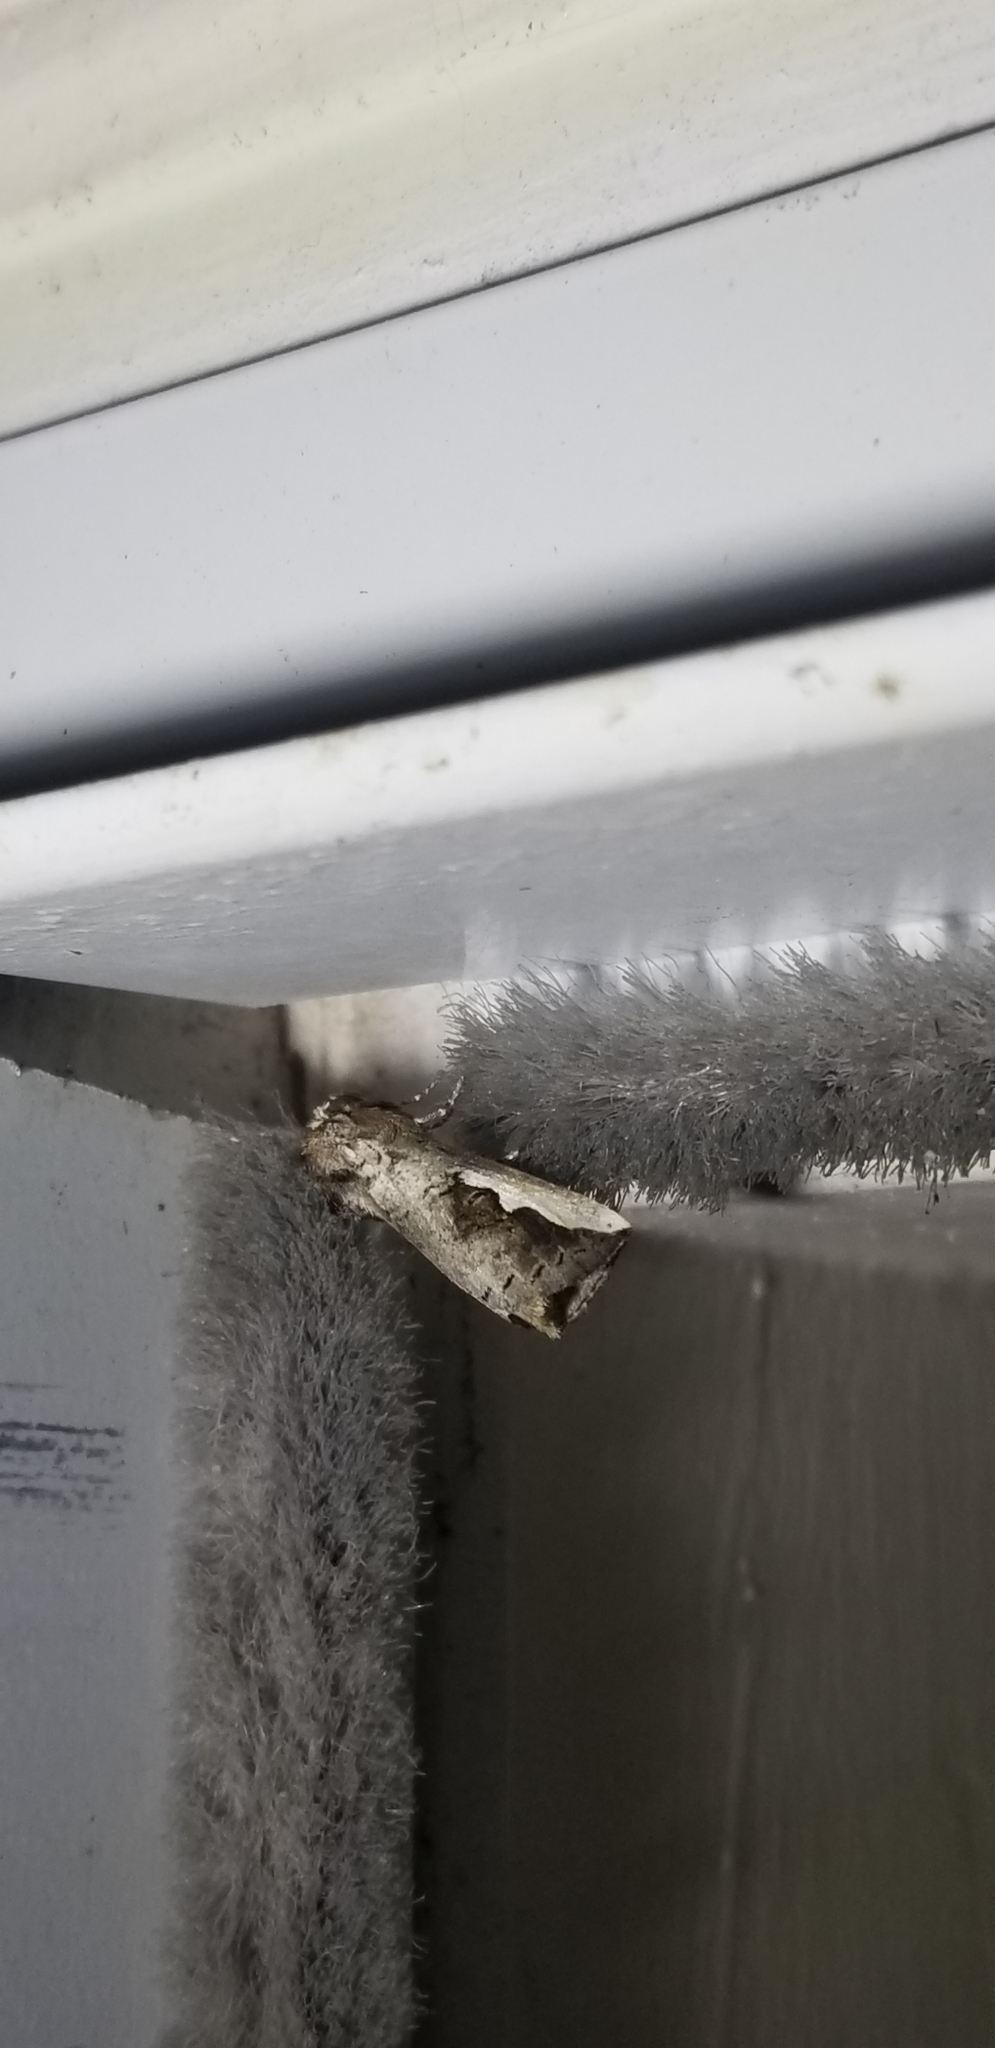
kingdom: Animalia
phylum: Arthropoda
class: Insecta
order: Lepidoptera
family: Notodontidae
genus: Symmerista
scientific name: Symmerista albifrons
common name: White-headed prominent
